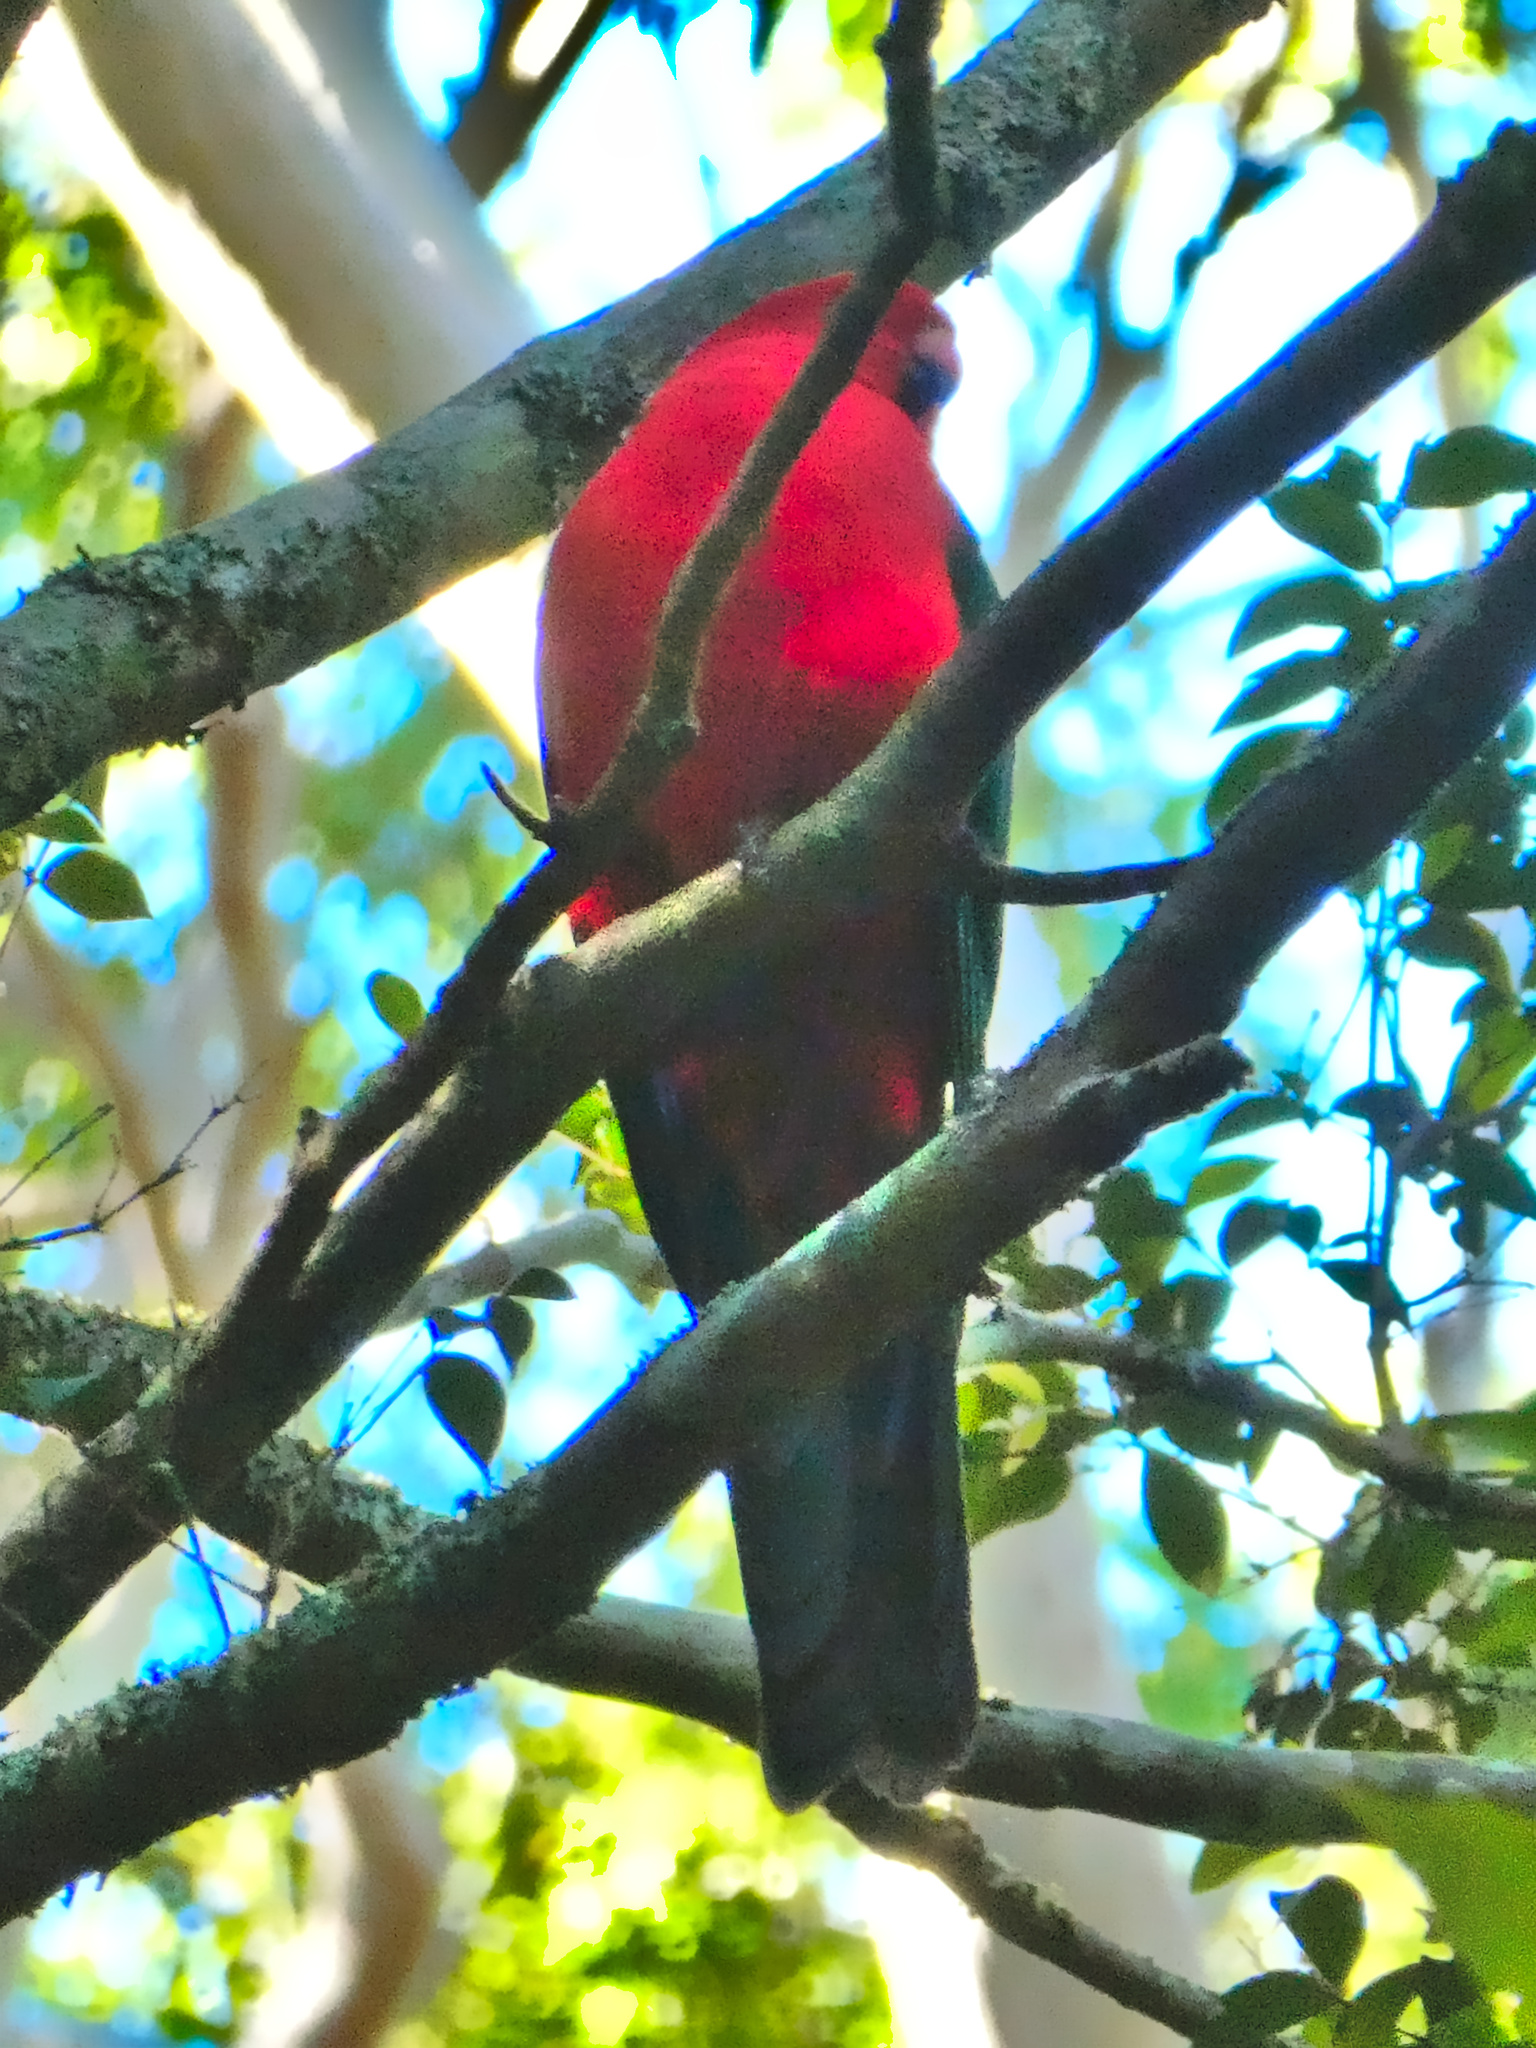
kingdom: Animalia
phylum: Chordata
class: Aves
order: Psittaciformes
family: Psittacidae
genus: Alisterus
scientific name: Alisterus scapularis
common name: Australian king parrot
